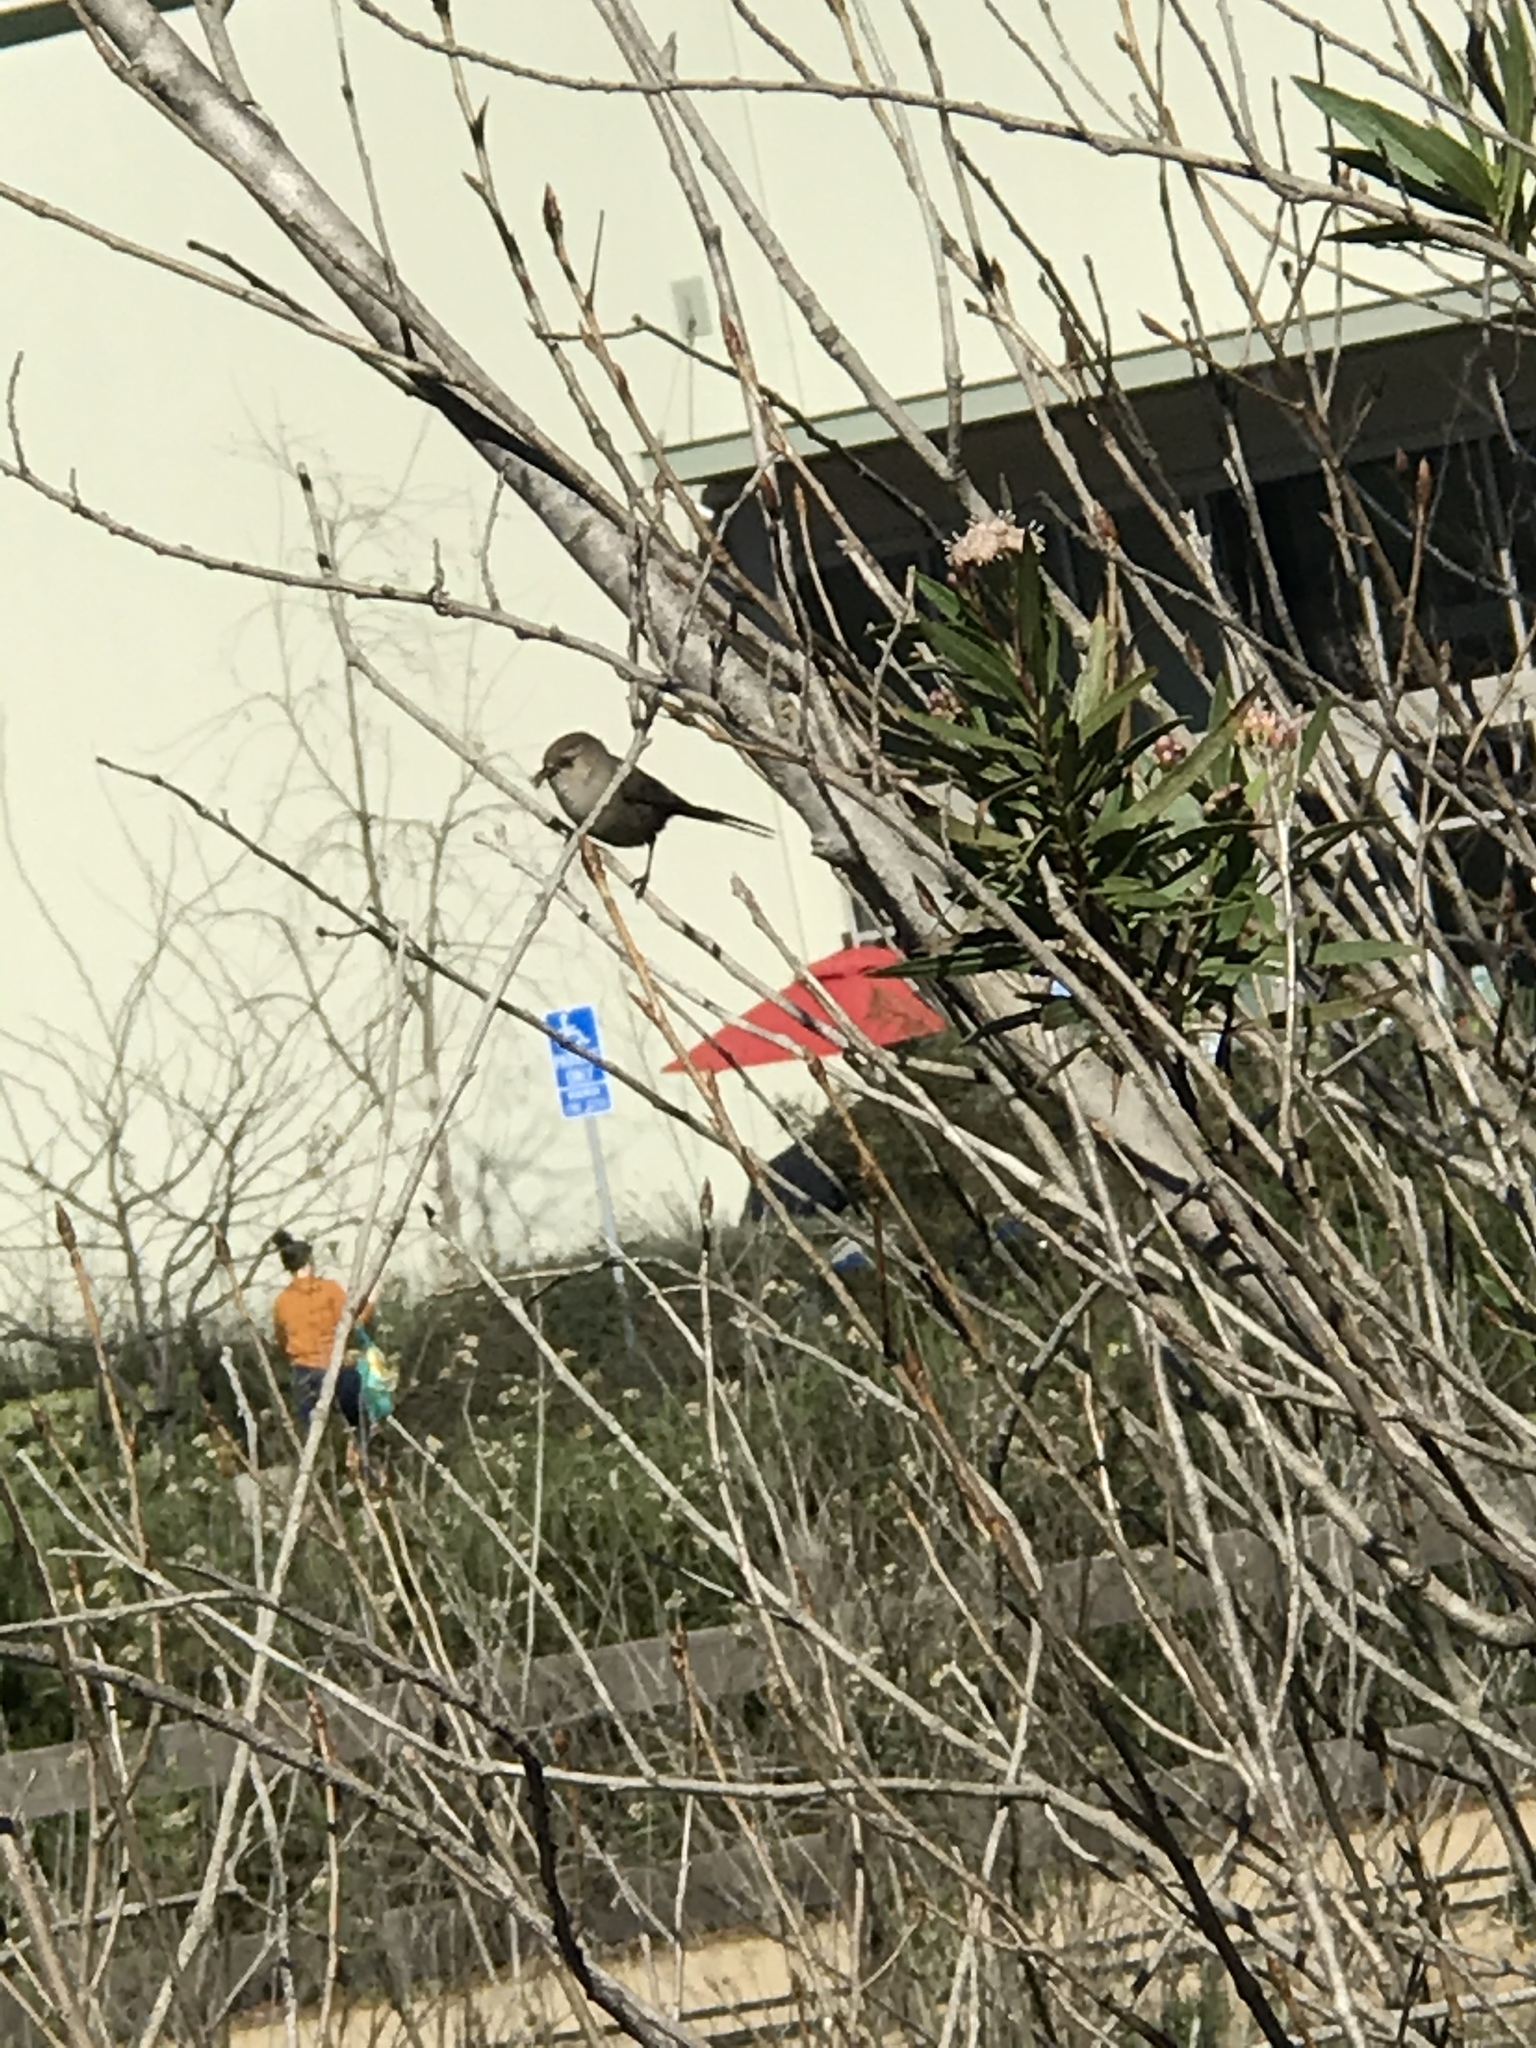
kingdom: Animalia
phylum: Chordata
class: Aves
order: Passeriformes
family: Aegithalidae
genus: Psaltriparus
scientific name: Psaltriparus minimus
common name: American bushtit
